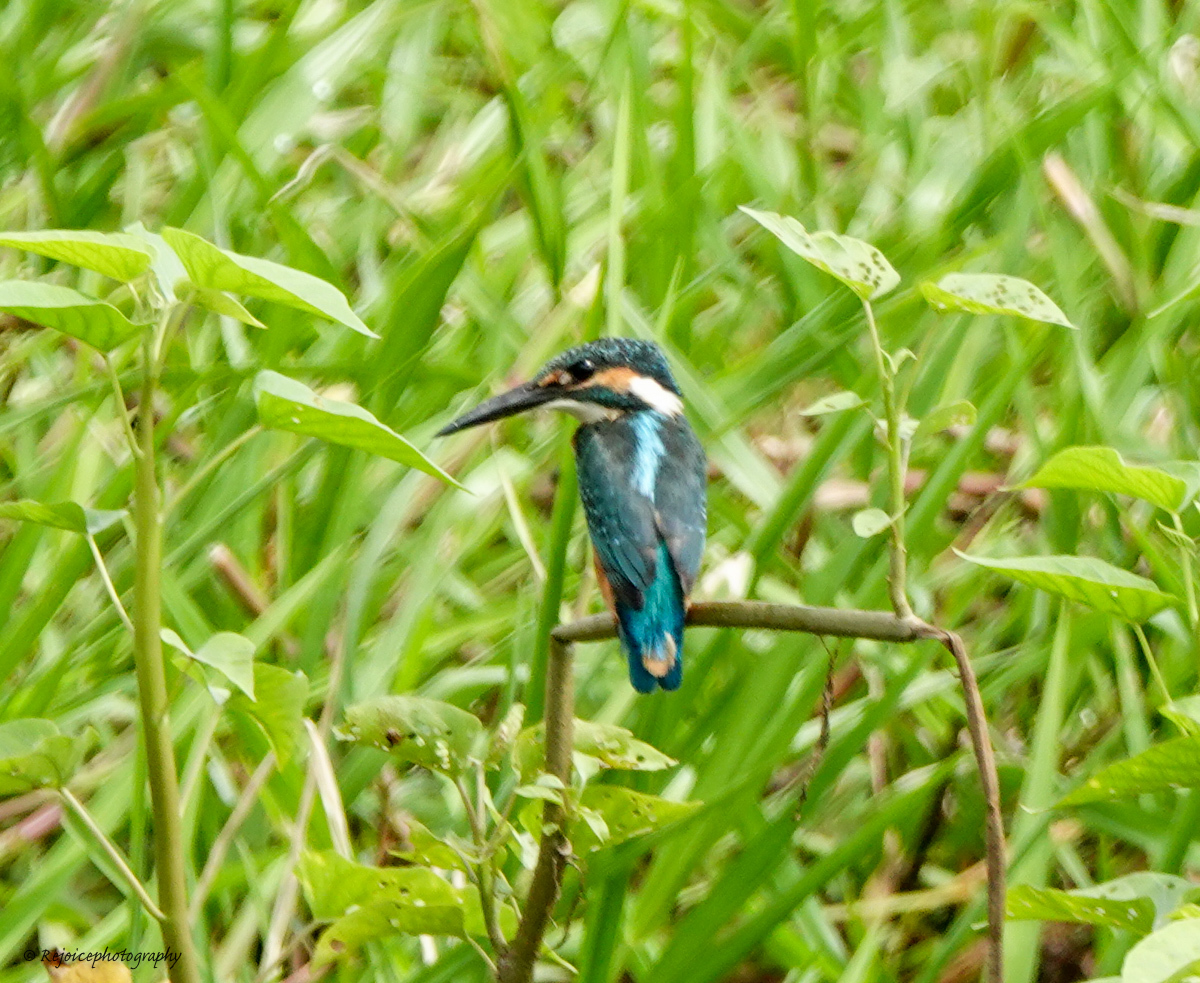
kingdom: Animalia
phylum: Chordata
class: Aves
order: Coraciiformes
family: Alcedinidae
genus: Alcedo
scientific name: Alcedo atthis
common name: Common kingfisher
